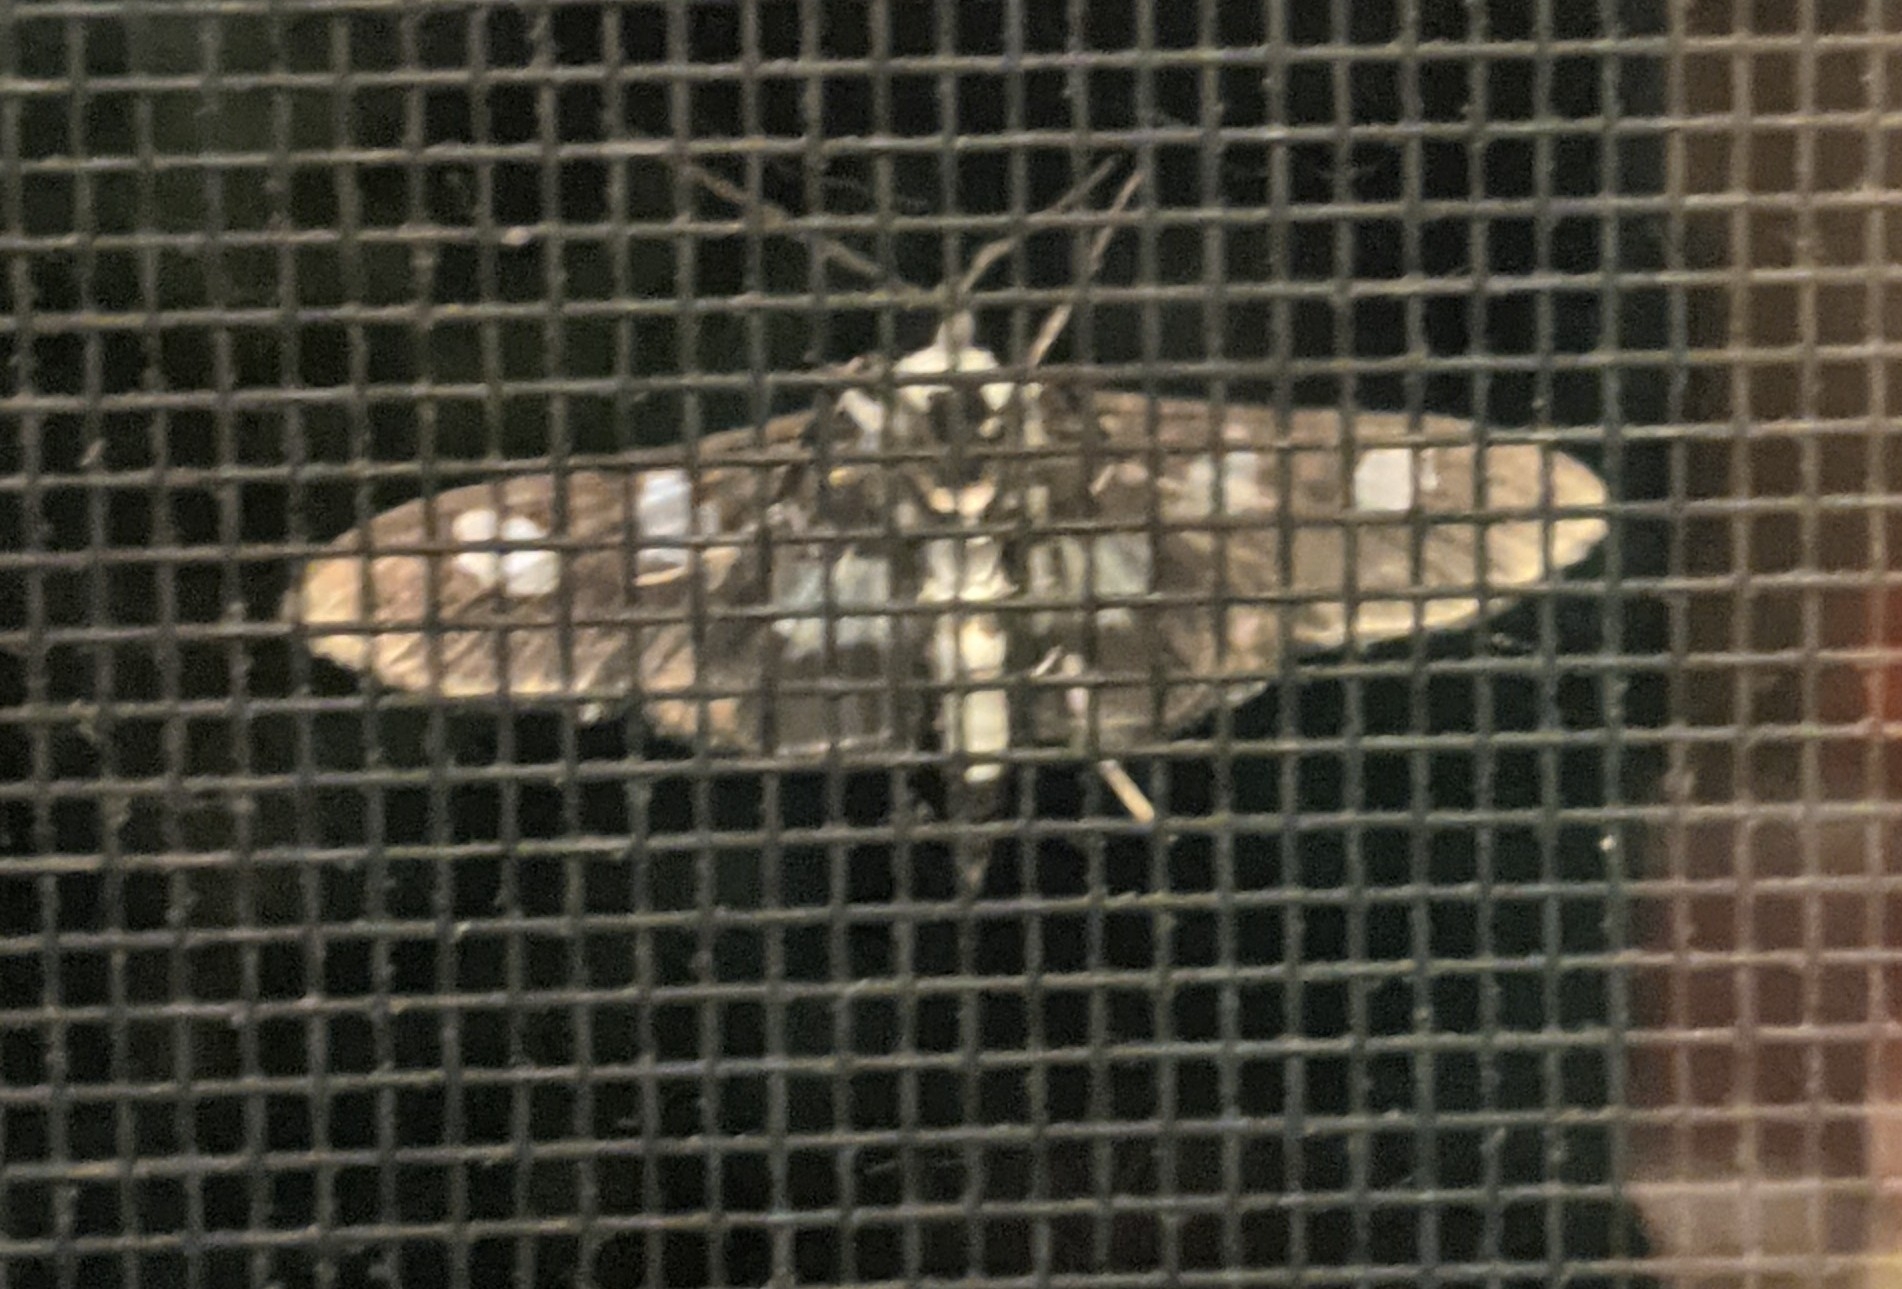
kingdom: Animalia
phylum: Arthropoda
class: Insecta
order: Lepidoptera
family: Crambidae
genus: Desmia
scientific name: Desmia funeralis
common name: Grape leaf folder moth
